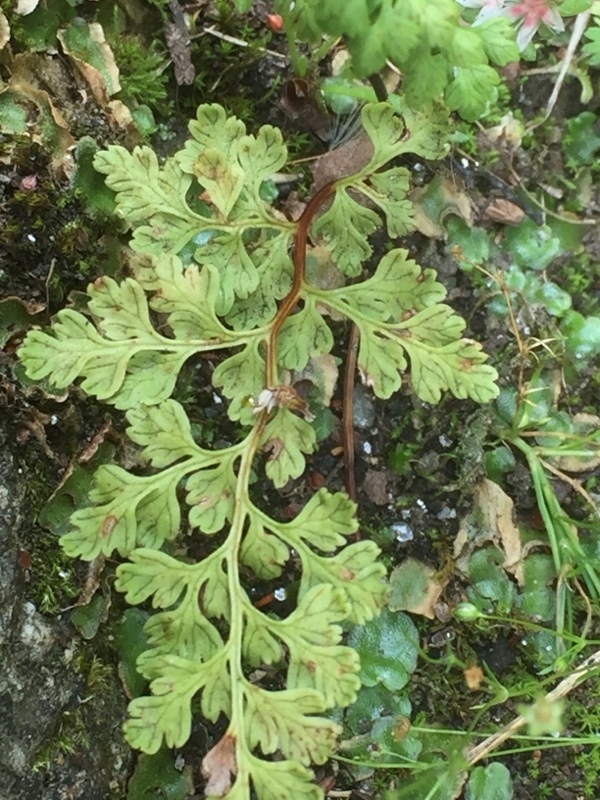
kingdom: Plantae
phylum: Tracheophyta
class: Polypodiopsida
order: Polypodiales
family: Pteridaceae
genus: Anogramma
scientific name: Anogramma leptophylla
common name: Jersey fern
